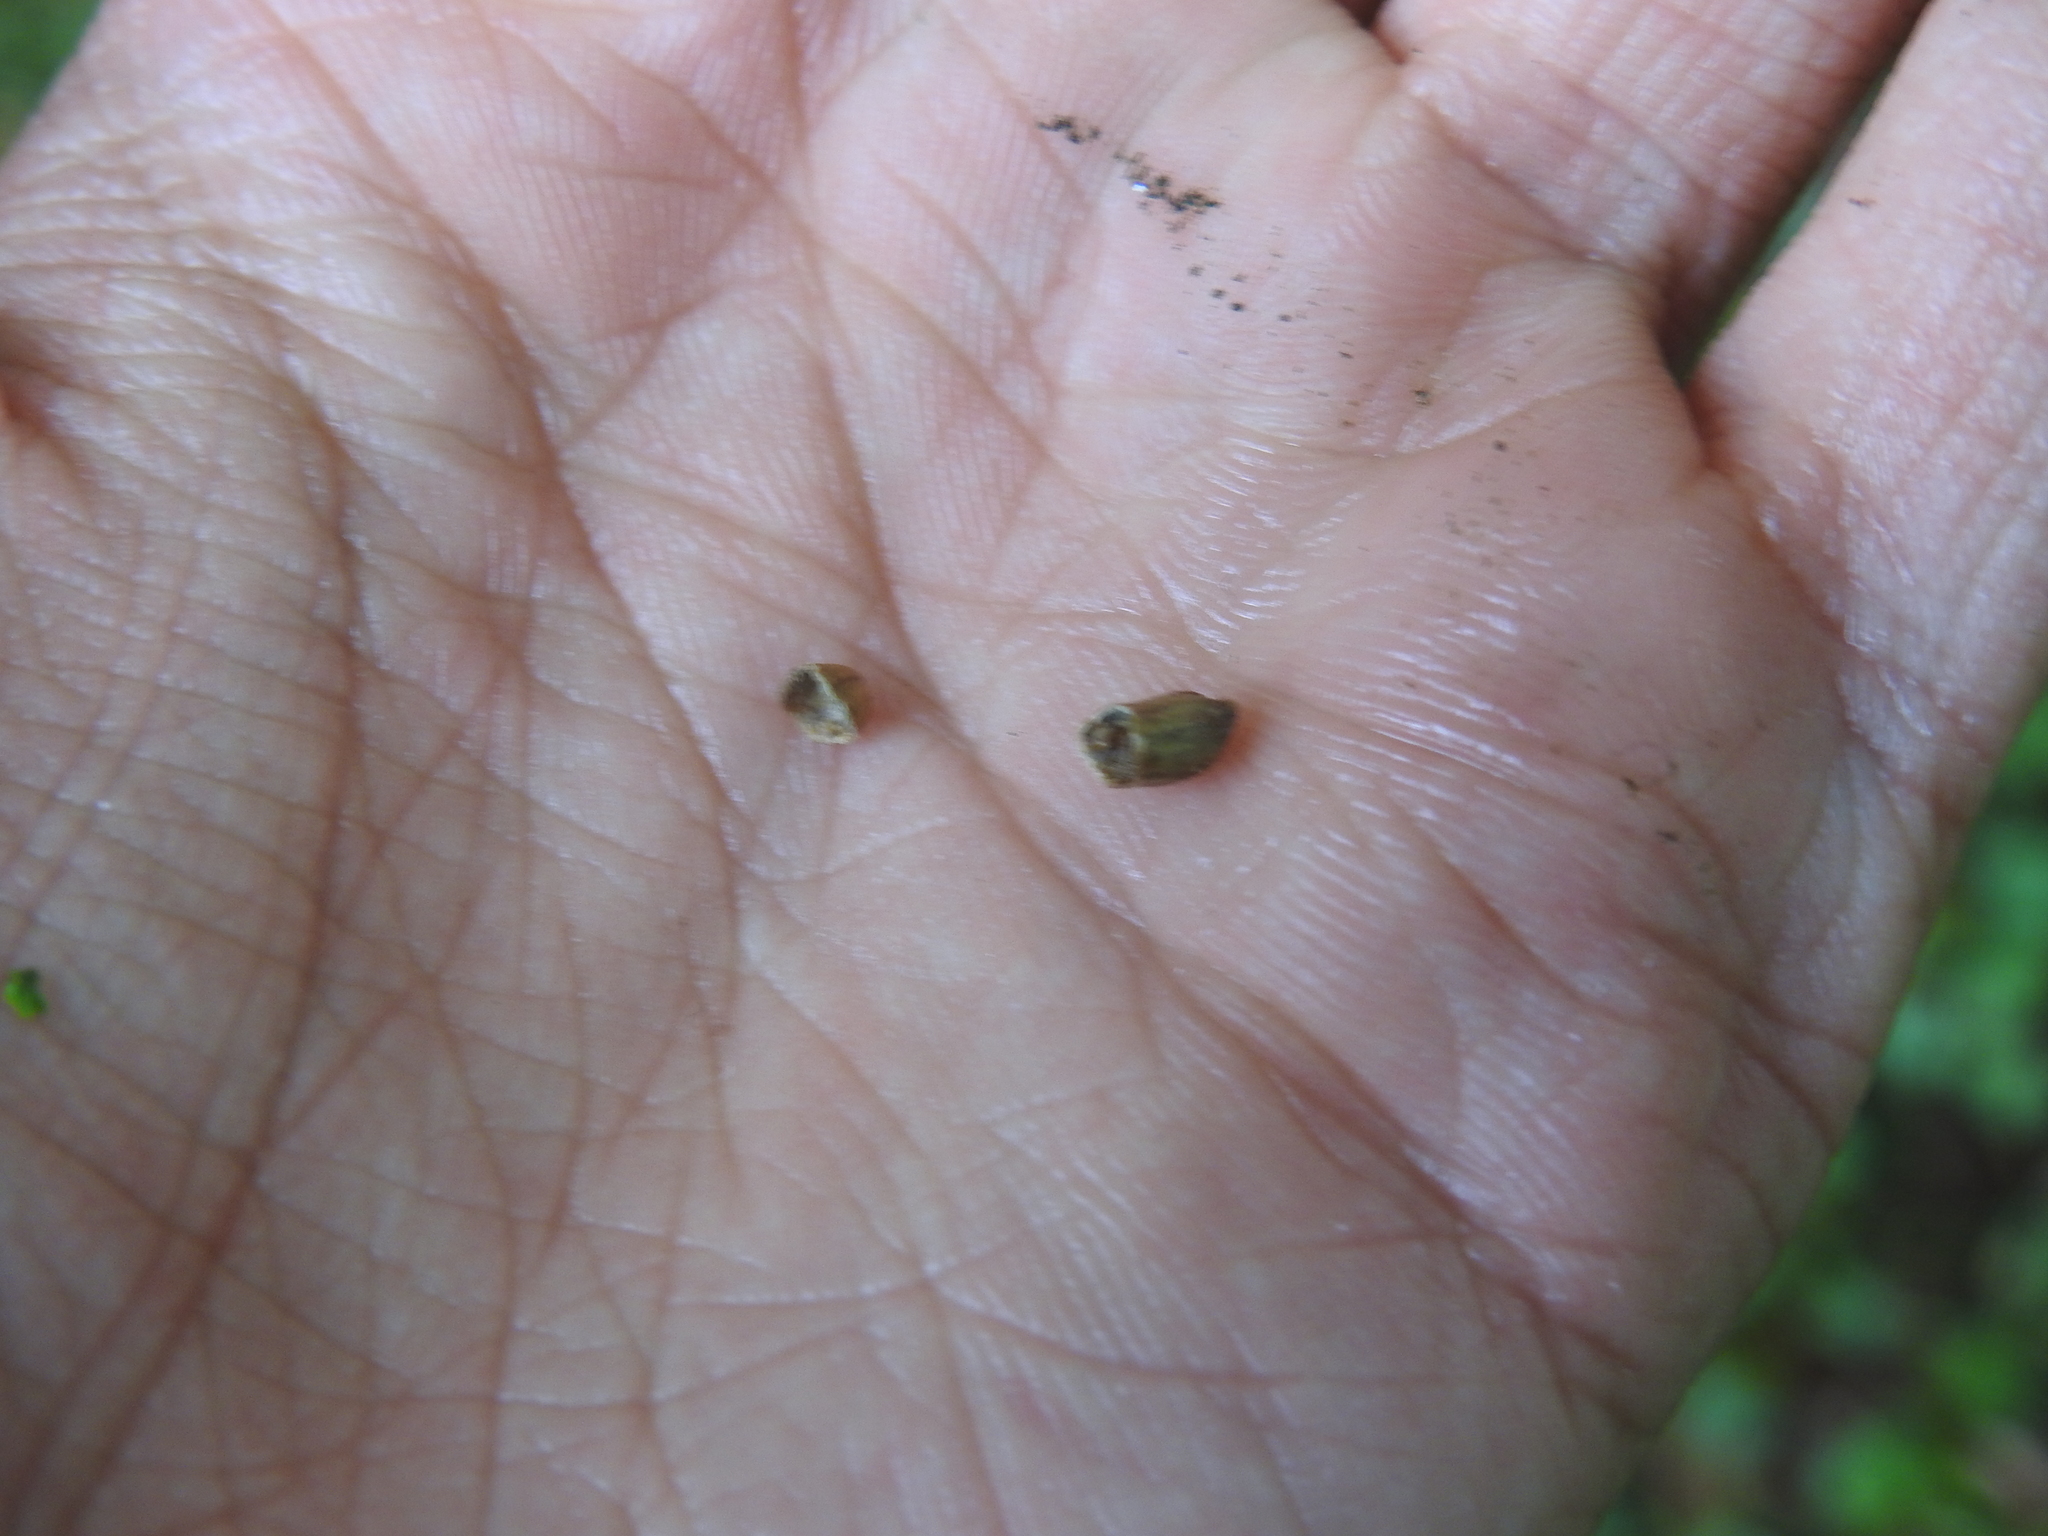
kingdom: Animalia
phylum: Arthropoda
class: Insecta
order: Hymenoptera
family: Cynipidae
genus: Andricus
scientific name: Andricus paradoxus
